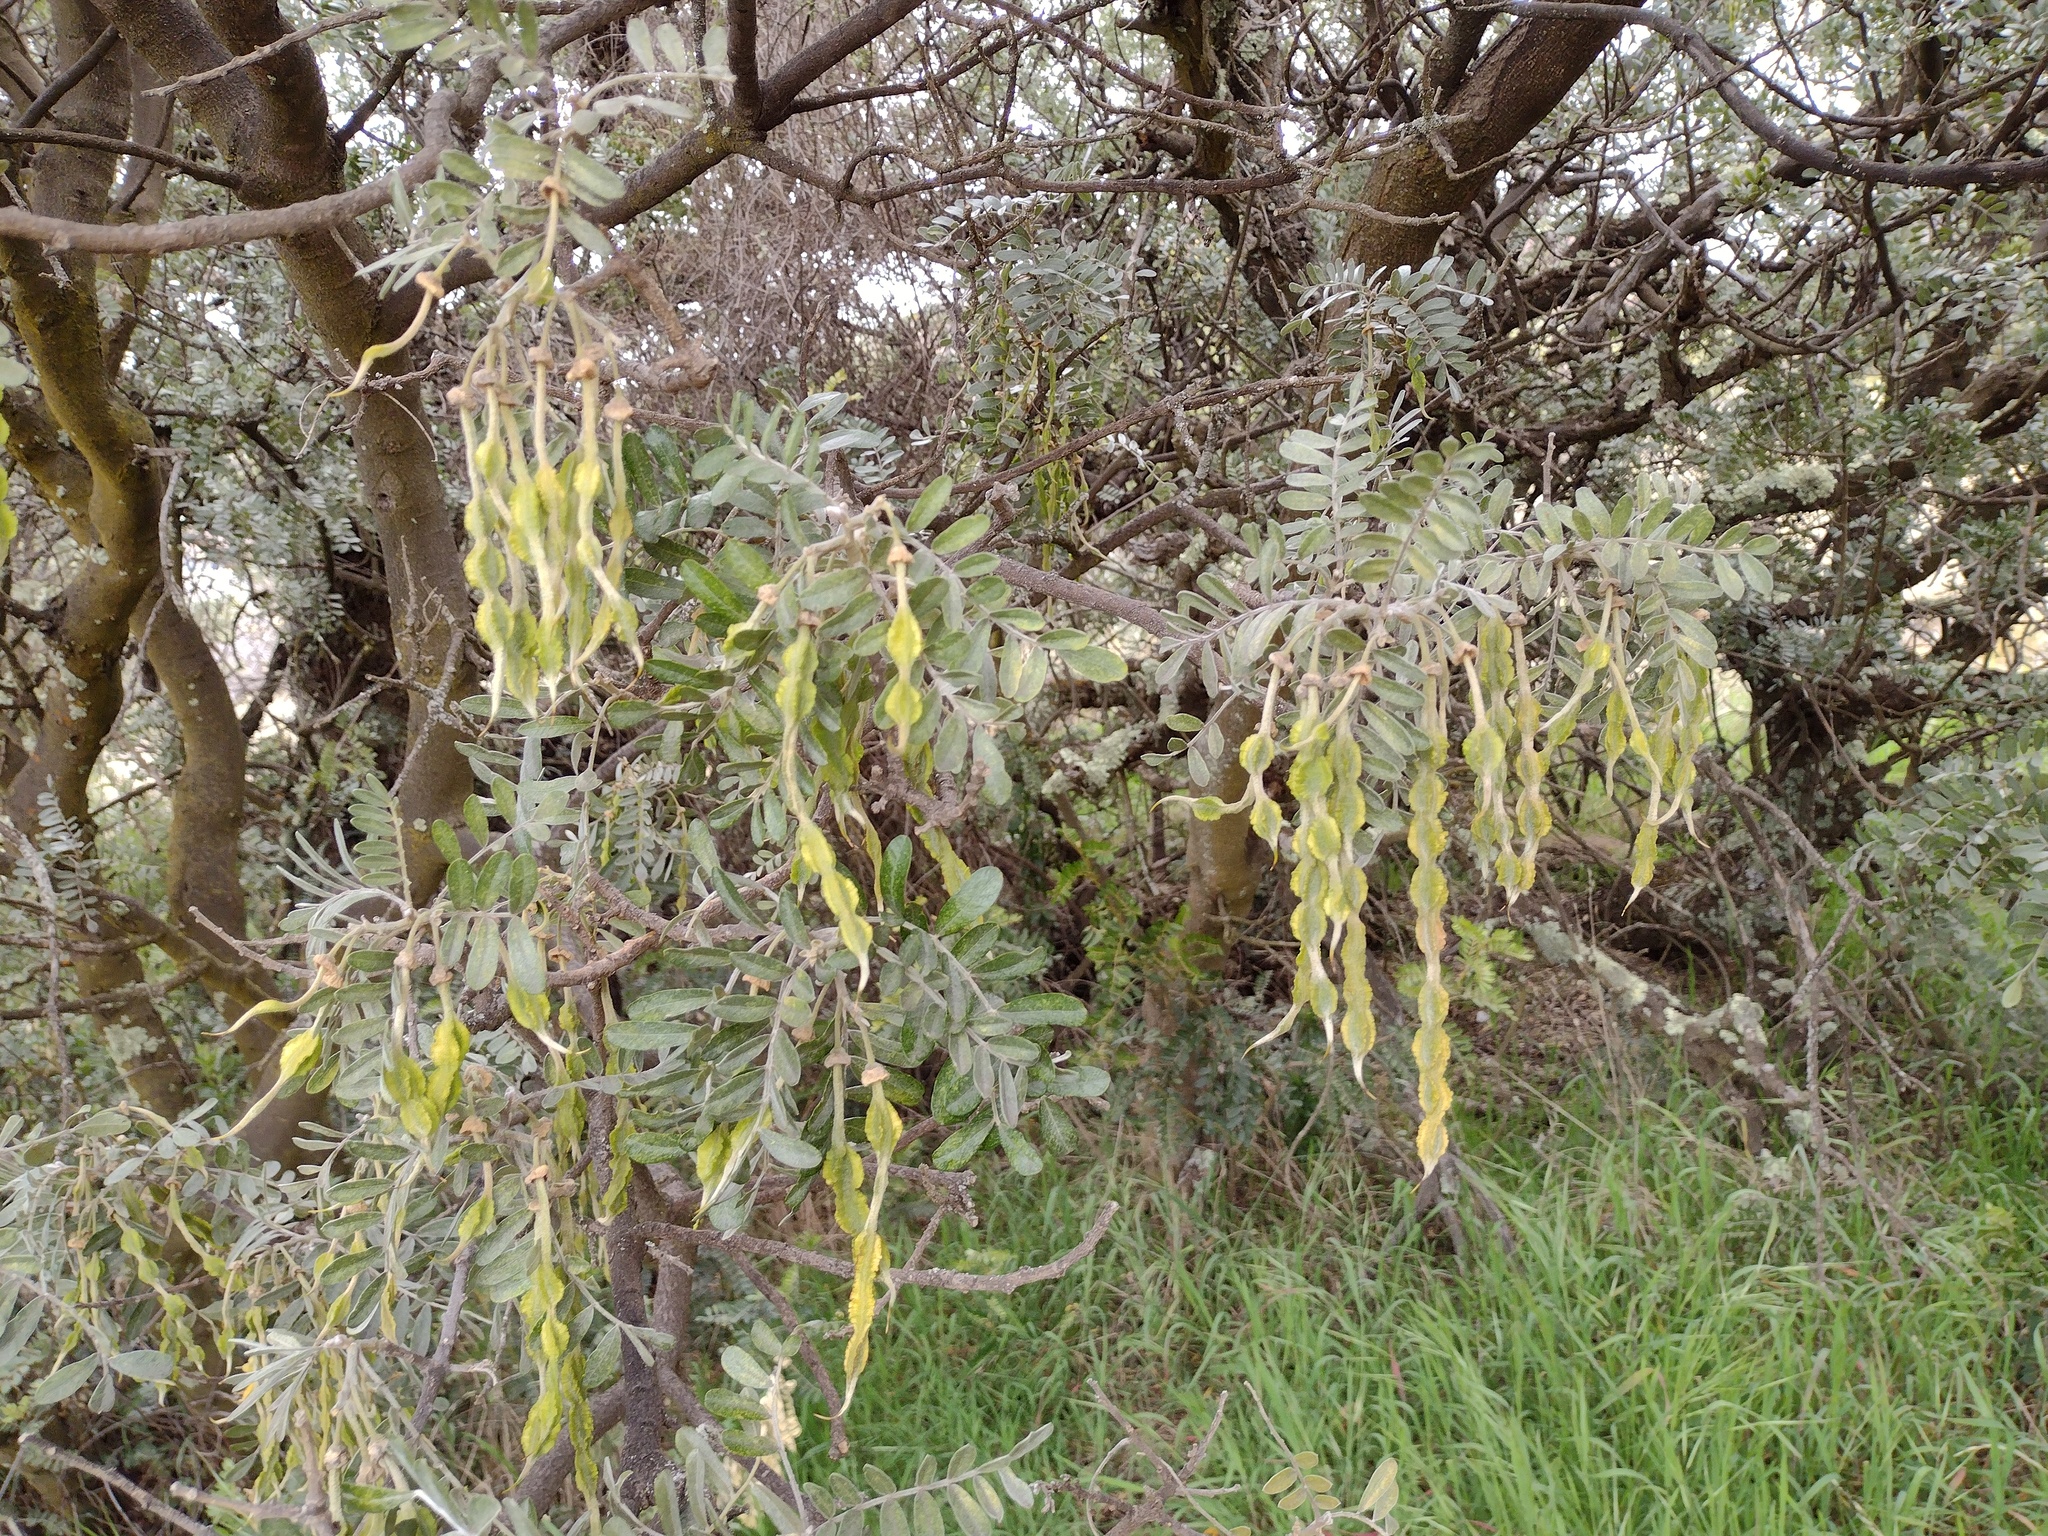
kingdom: Plantae
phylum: Tracheophyta
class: Magnoliopsida
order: Fabales
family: Fabaceae
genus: Sophora
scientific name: Sophora chrysophylla
